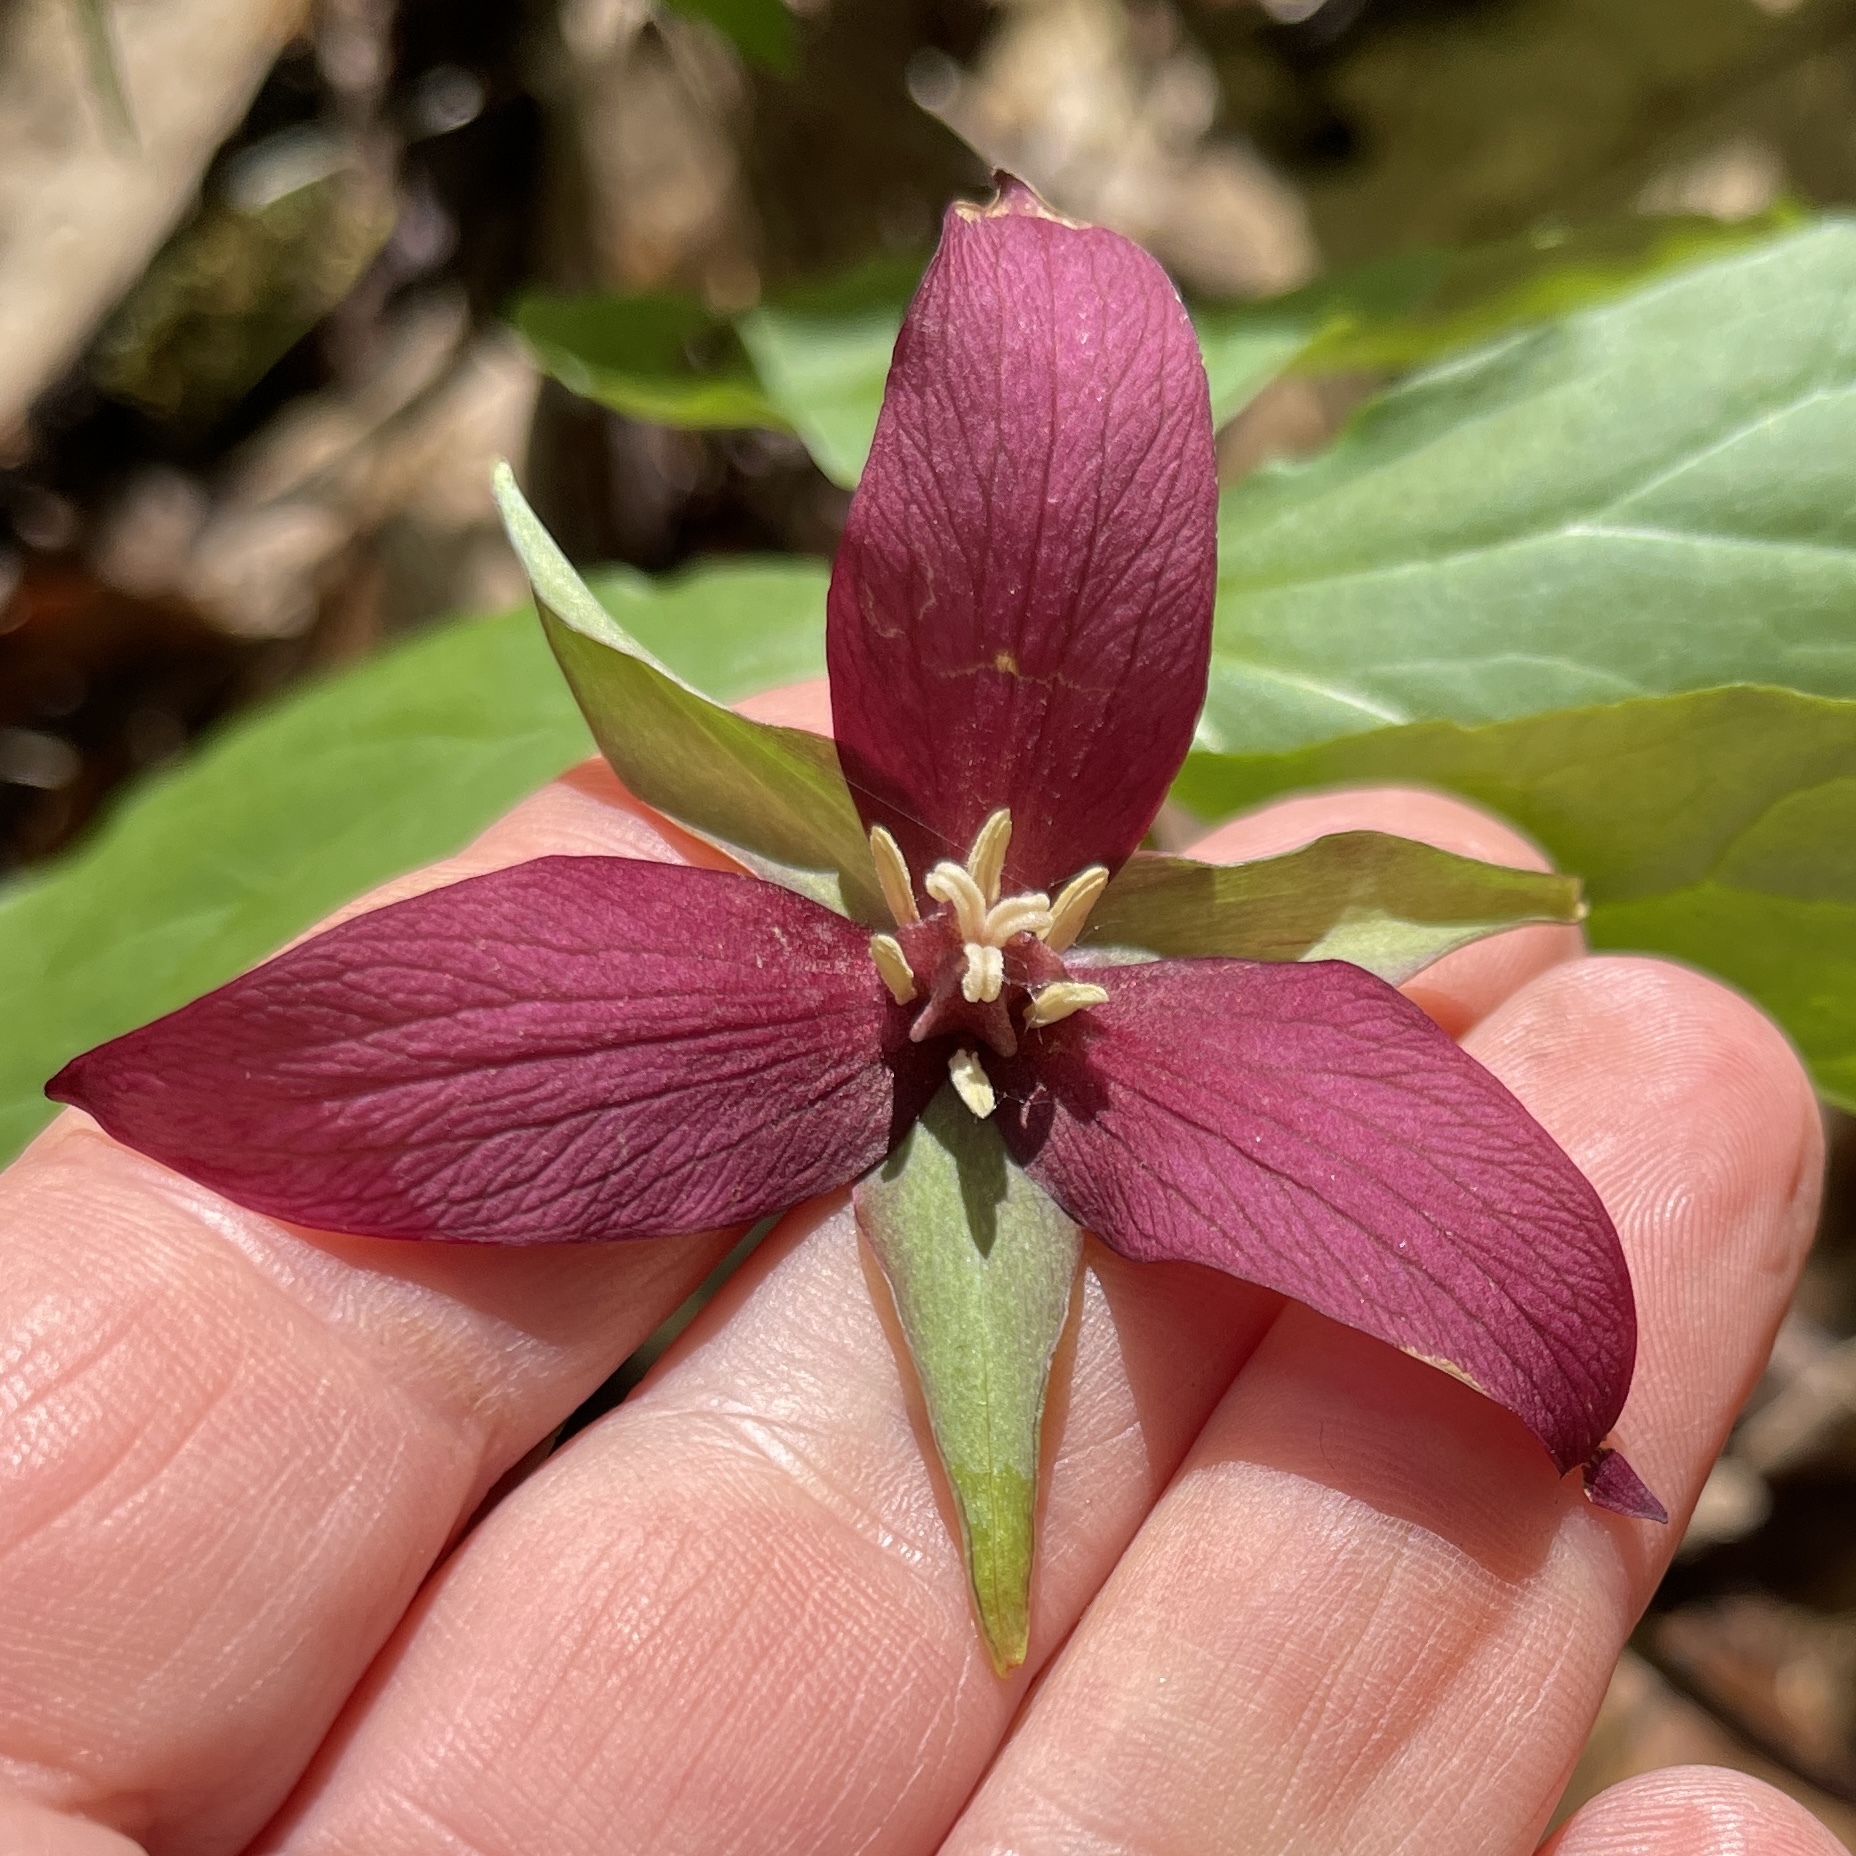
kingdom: Plantae
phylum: Tracheophyta
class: Liliopsida
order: Liliales
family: Melanthiaceae
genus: Trillium
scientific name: Trillium erectum
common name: Purple trillium
